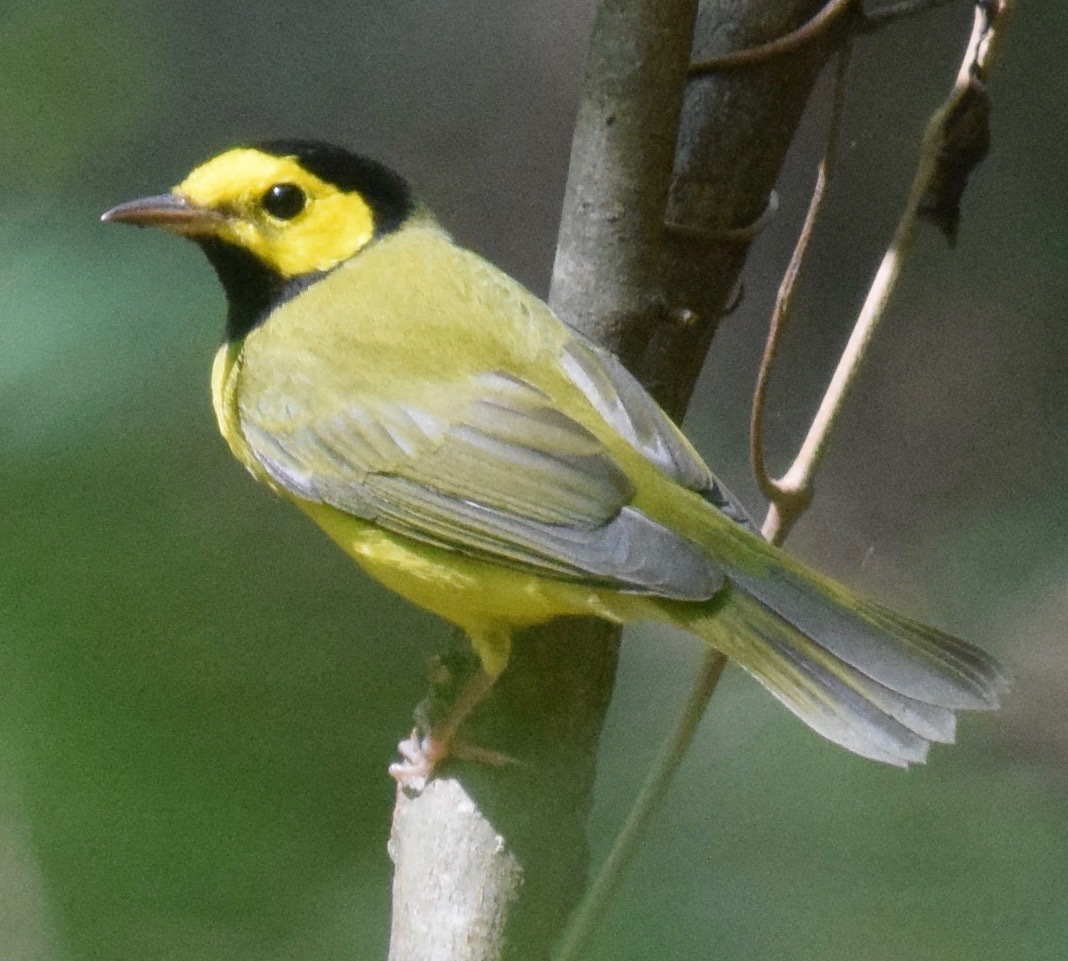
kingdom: Animalia
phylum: Chordata
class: Aves
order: Passeriformes
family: Parulidae
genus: Setophaga
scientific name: Setophaga citrina
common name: Hooded warbler
